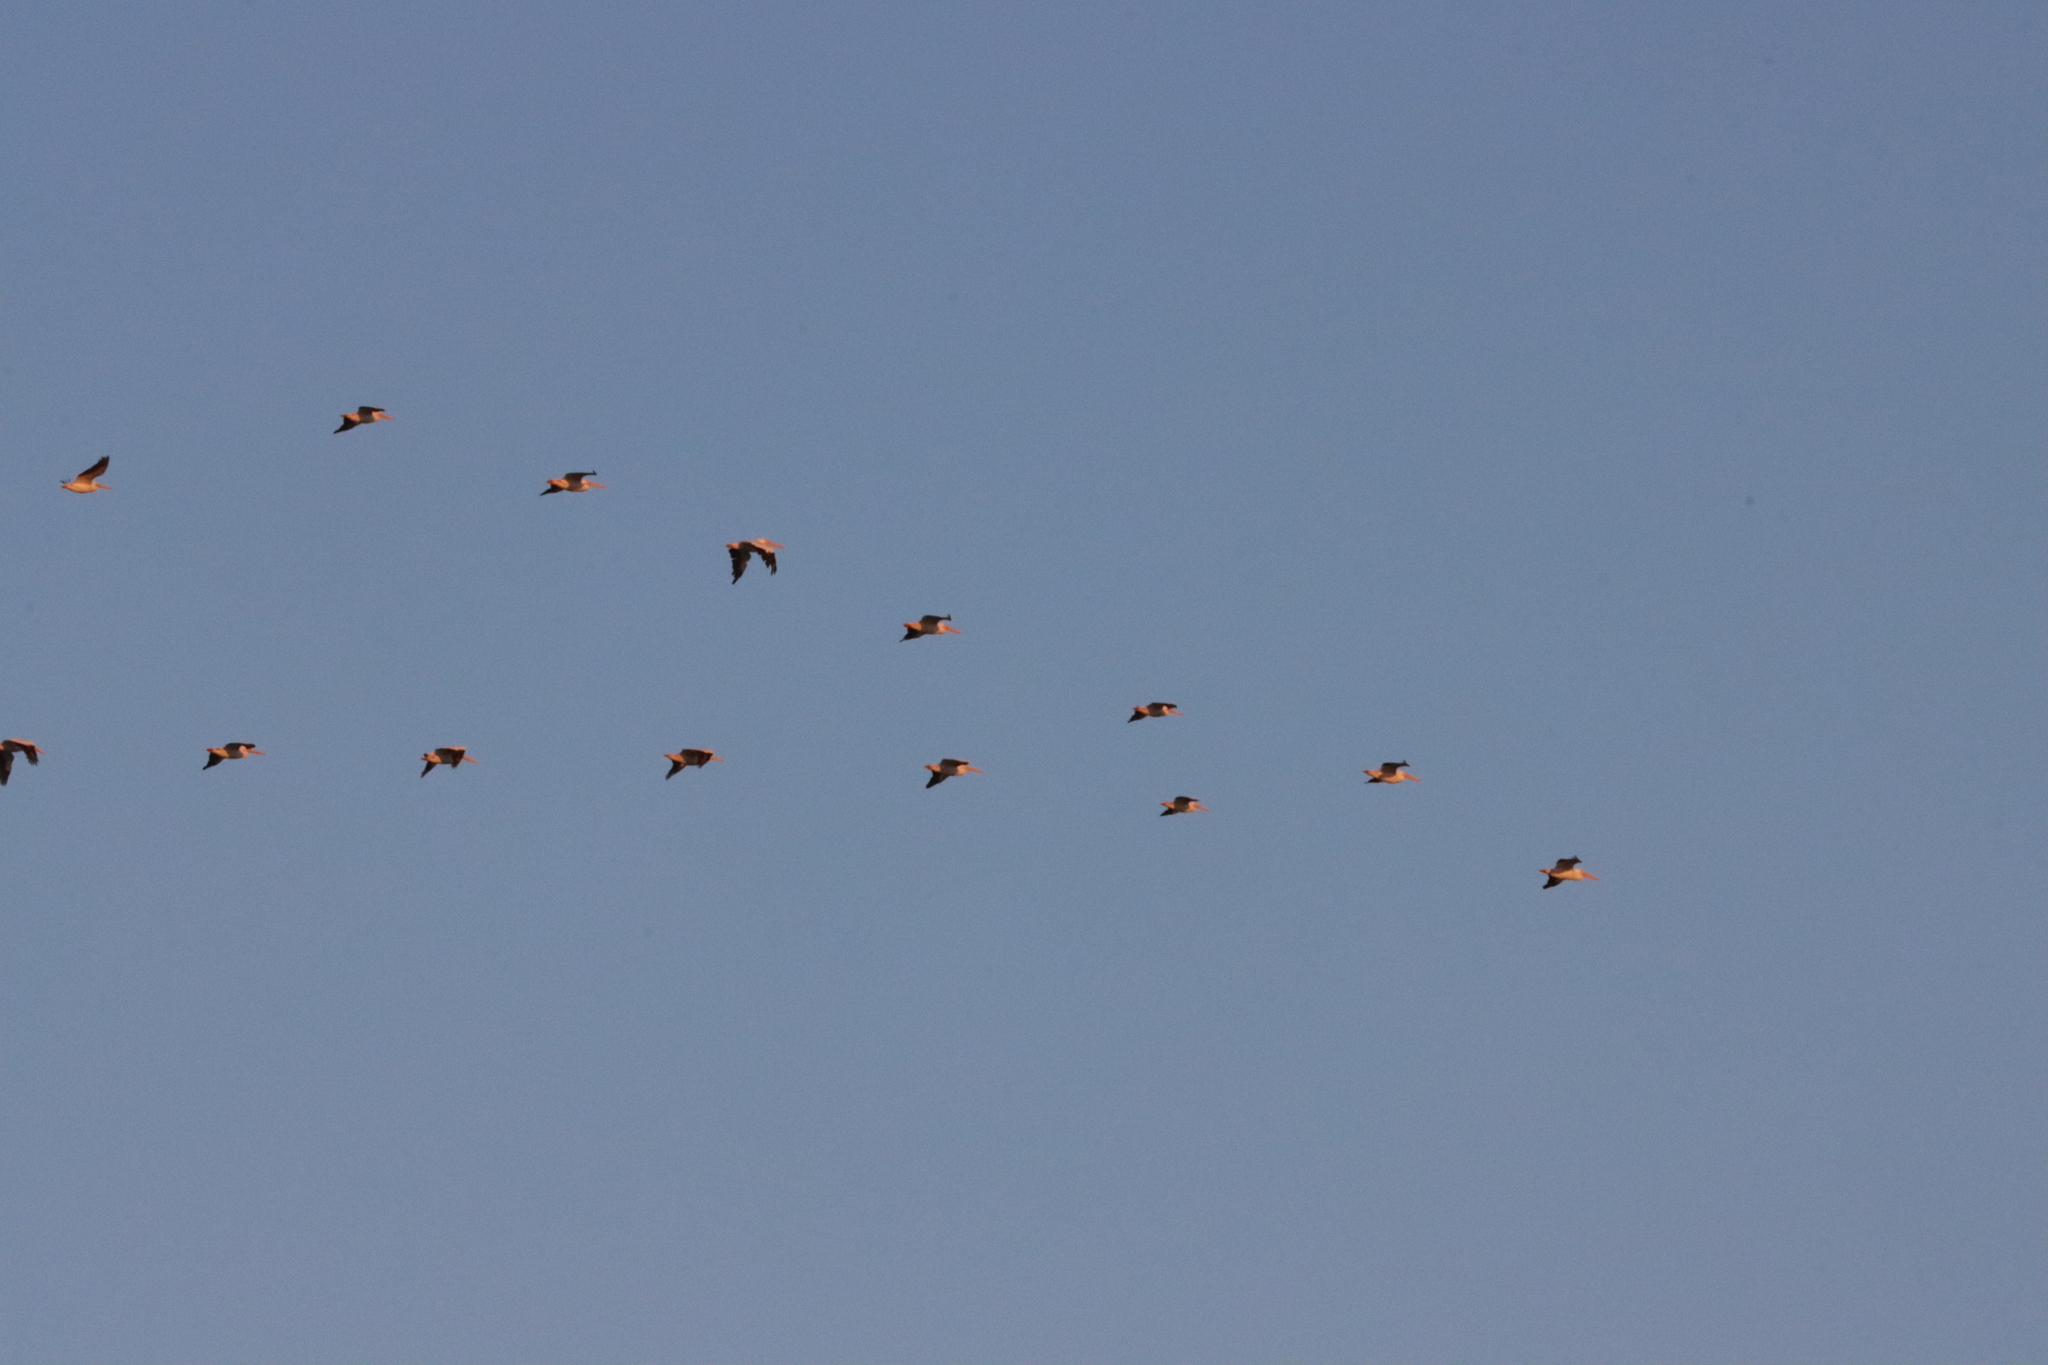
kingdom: Animalia
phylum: Chordata
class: Aves
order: Pelecaniformes
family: Pelecanidae
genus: Pelecanus
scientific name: Pelecanus erythrorhynchos
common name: American white pelican
